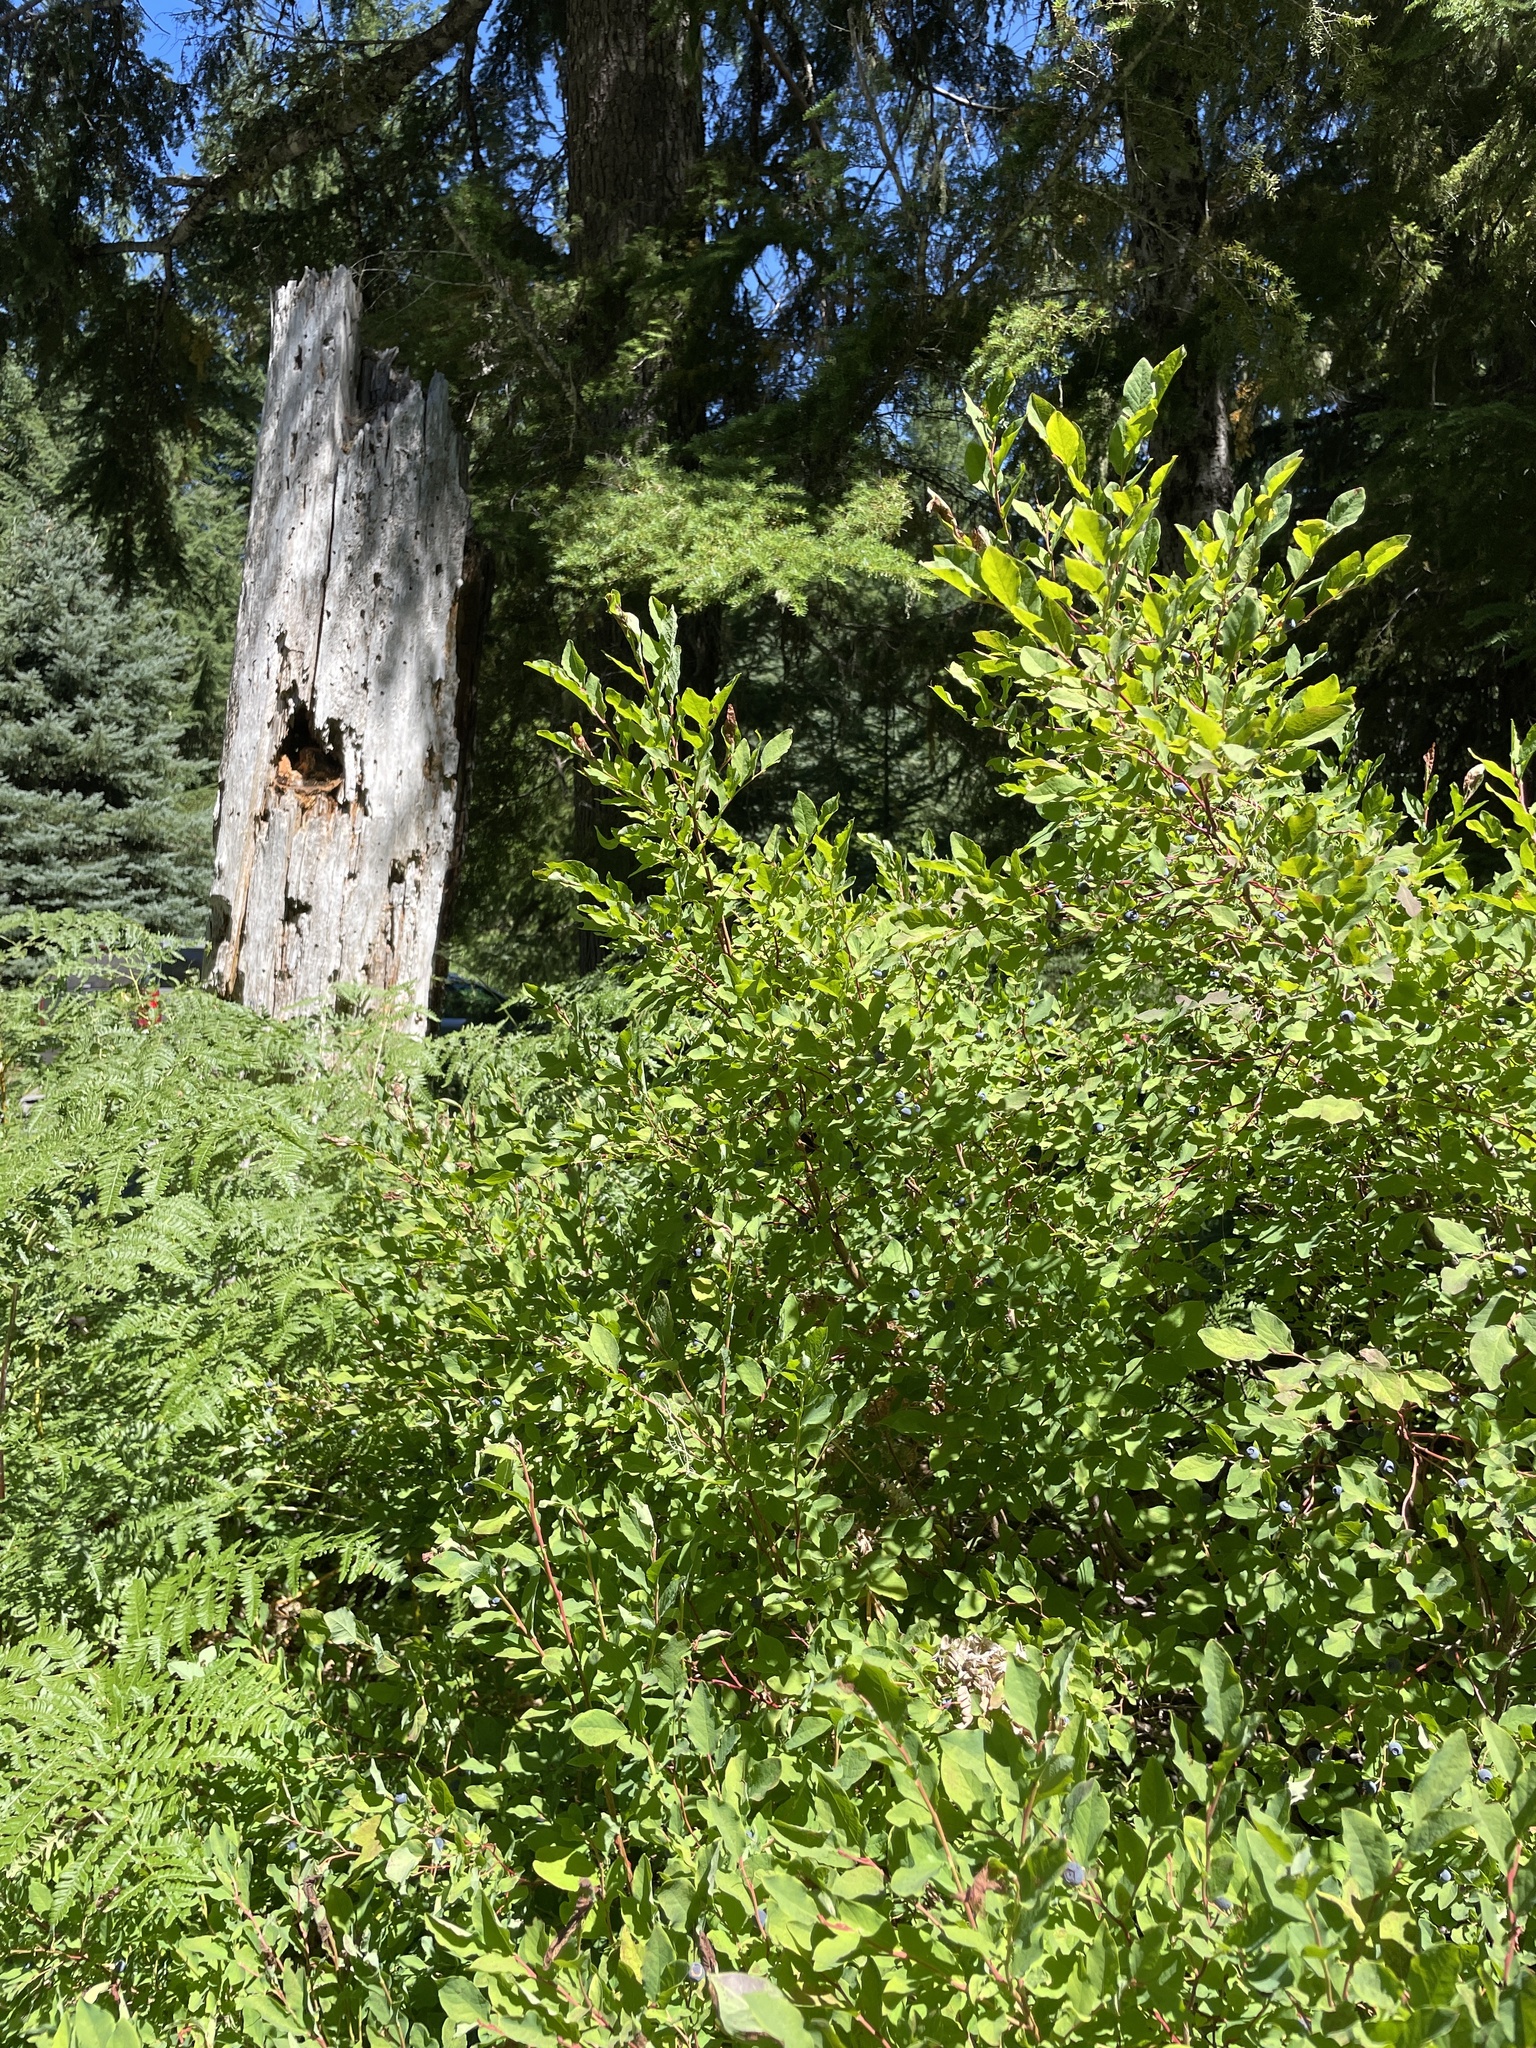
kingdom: Plantae
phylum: Tracheophyta
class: Magnoliopsida
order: Ericales
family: Ericaceae
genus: Vaccinium
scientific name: Vaccinium ovalifolium
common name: Early blueberry
